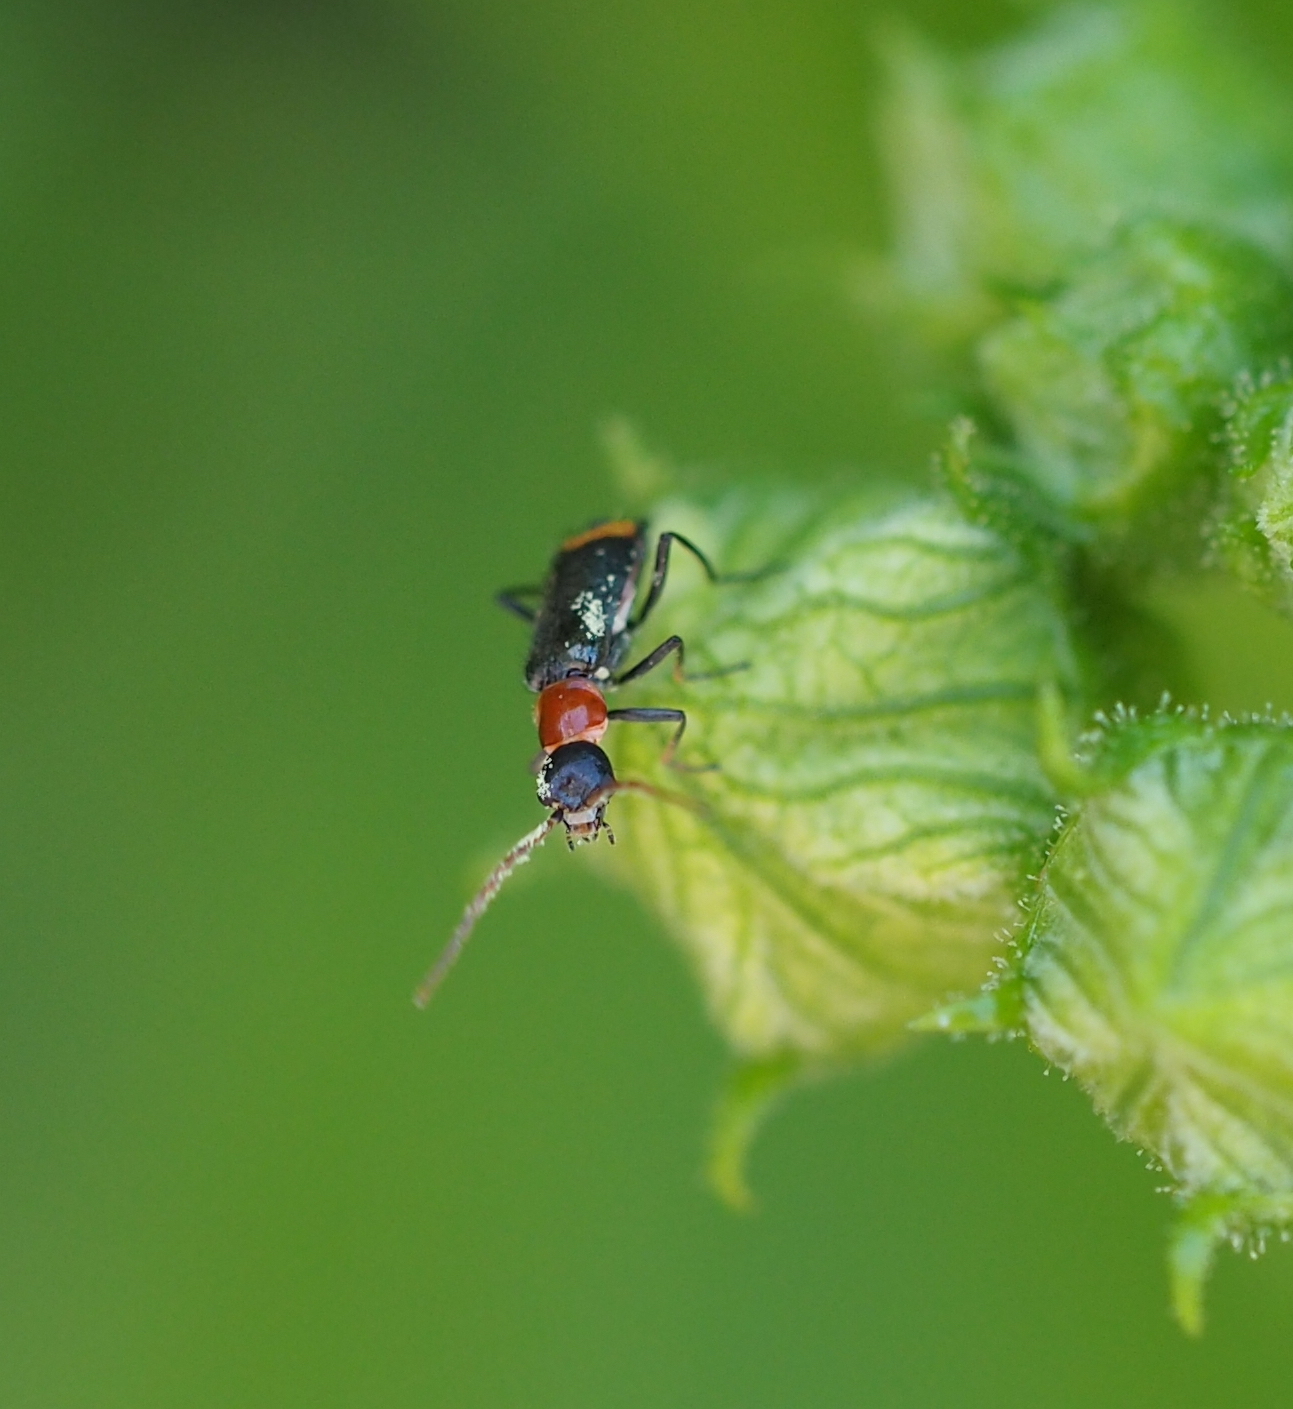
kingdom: Animalia
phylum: Arthropoda
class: Insecta
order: Coleoptera
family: Melyridae
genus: Axinotarsus
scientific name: Axinotarsus ruficollis
